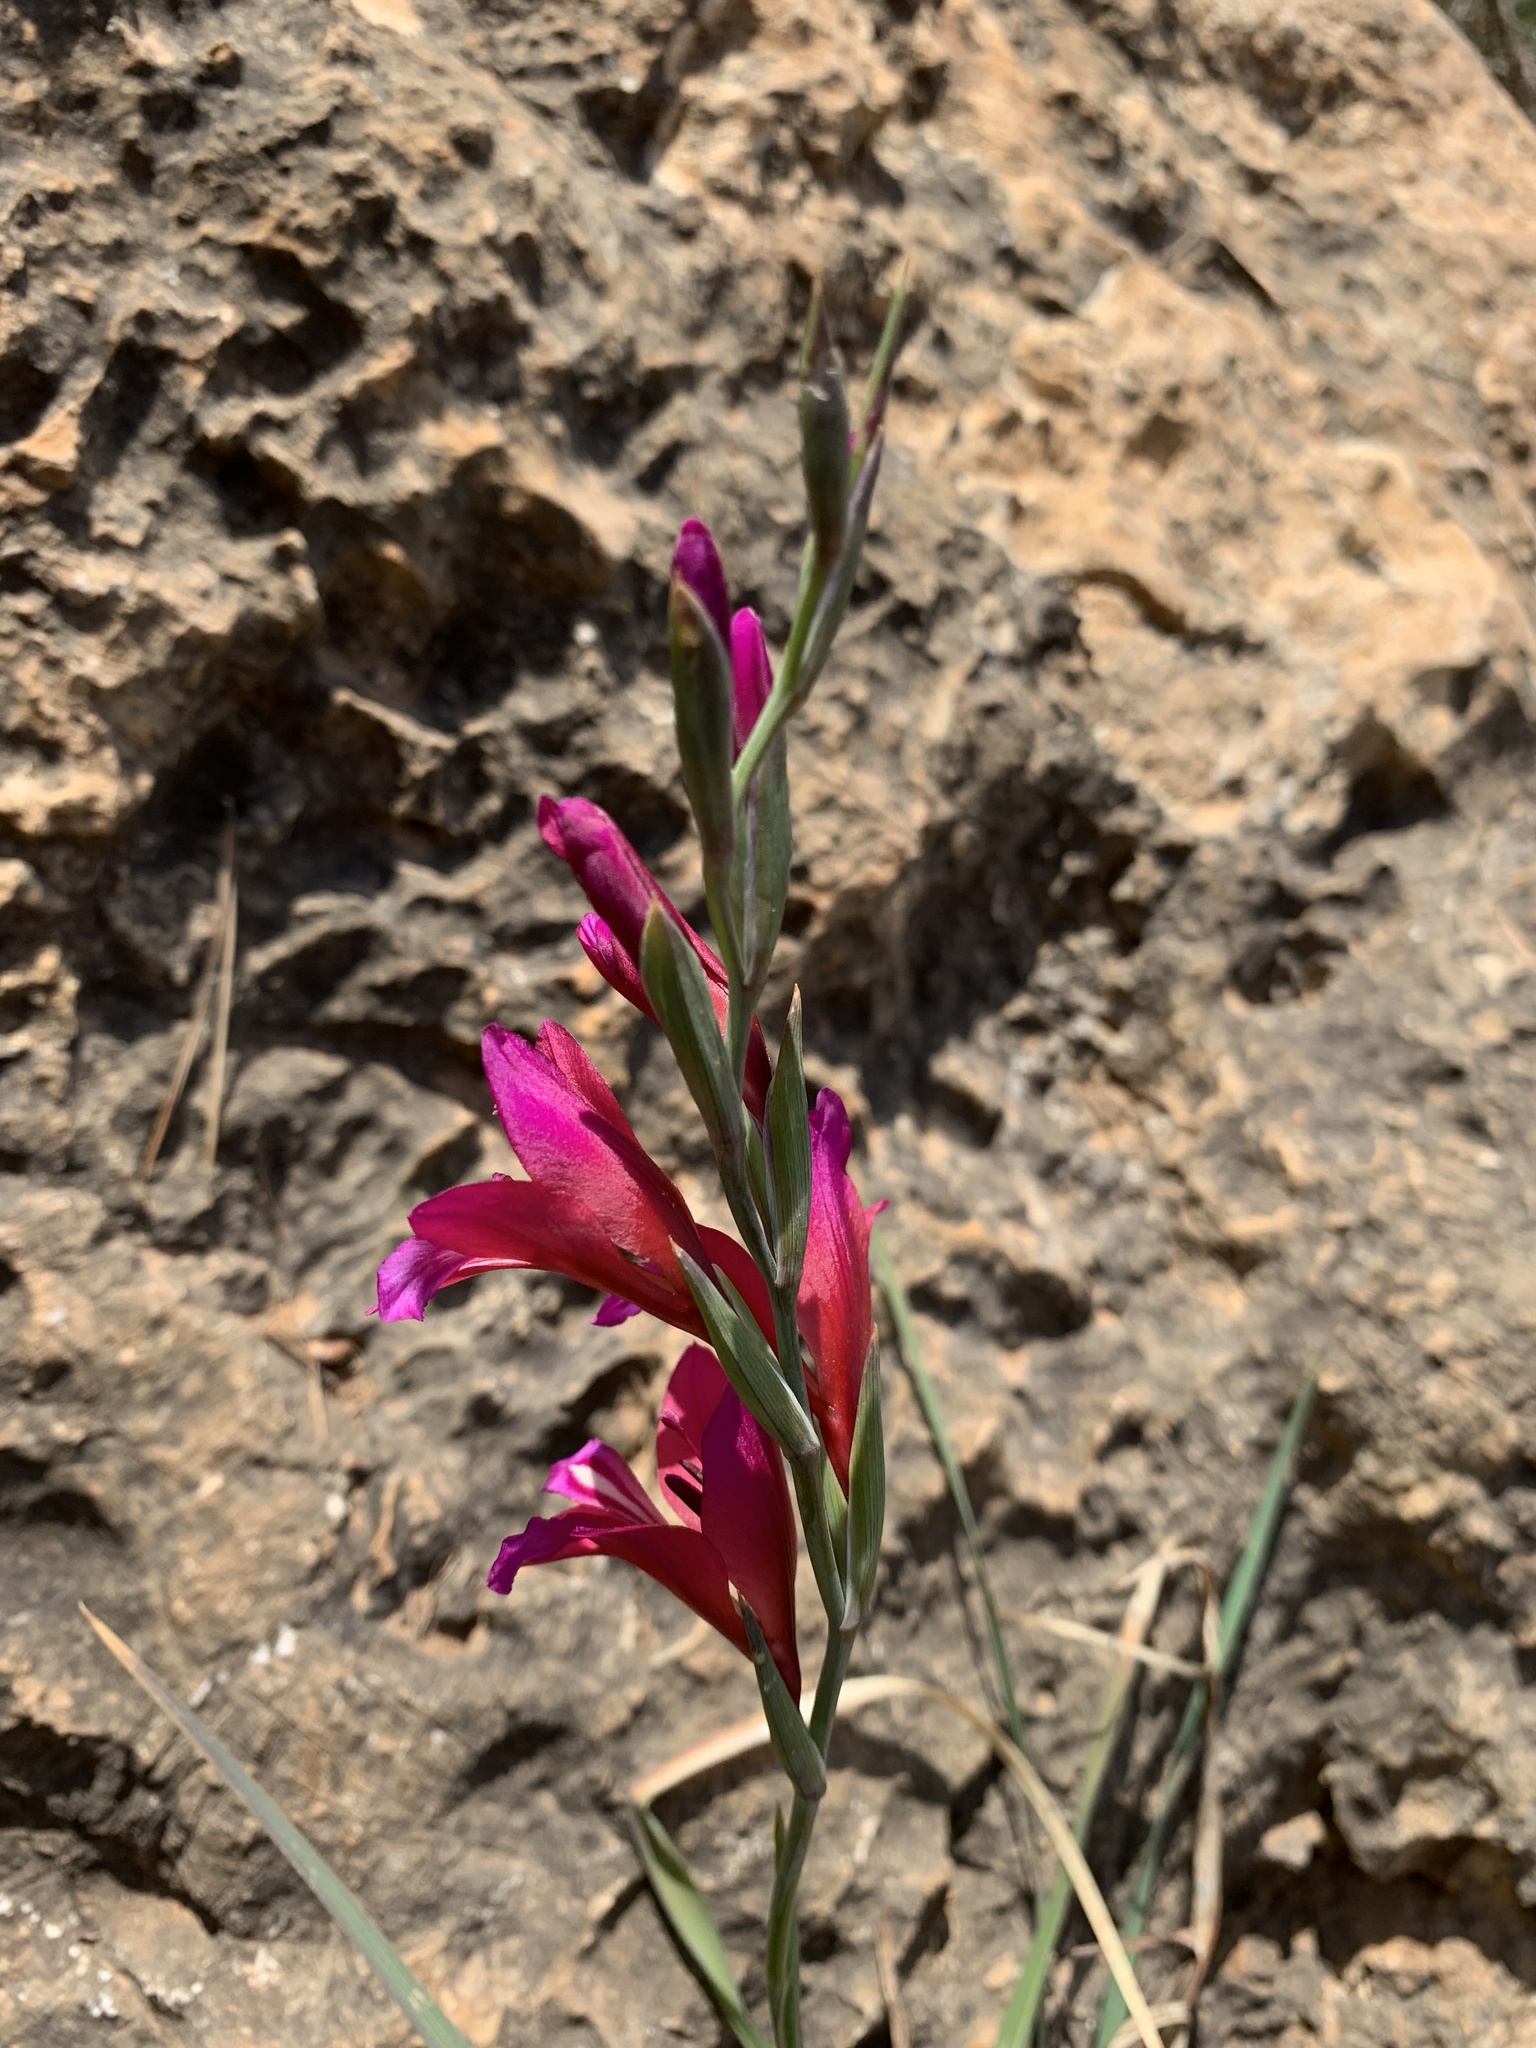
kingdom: Plantae
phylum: Tracheophyta
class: Liliopsida
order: Asparagales
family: Iridaceae
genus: Gladiolus
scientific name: Gladiolus italicus
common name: Field gladiolus
